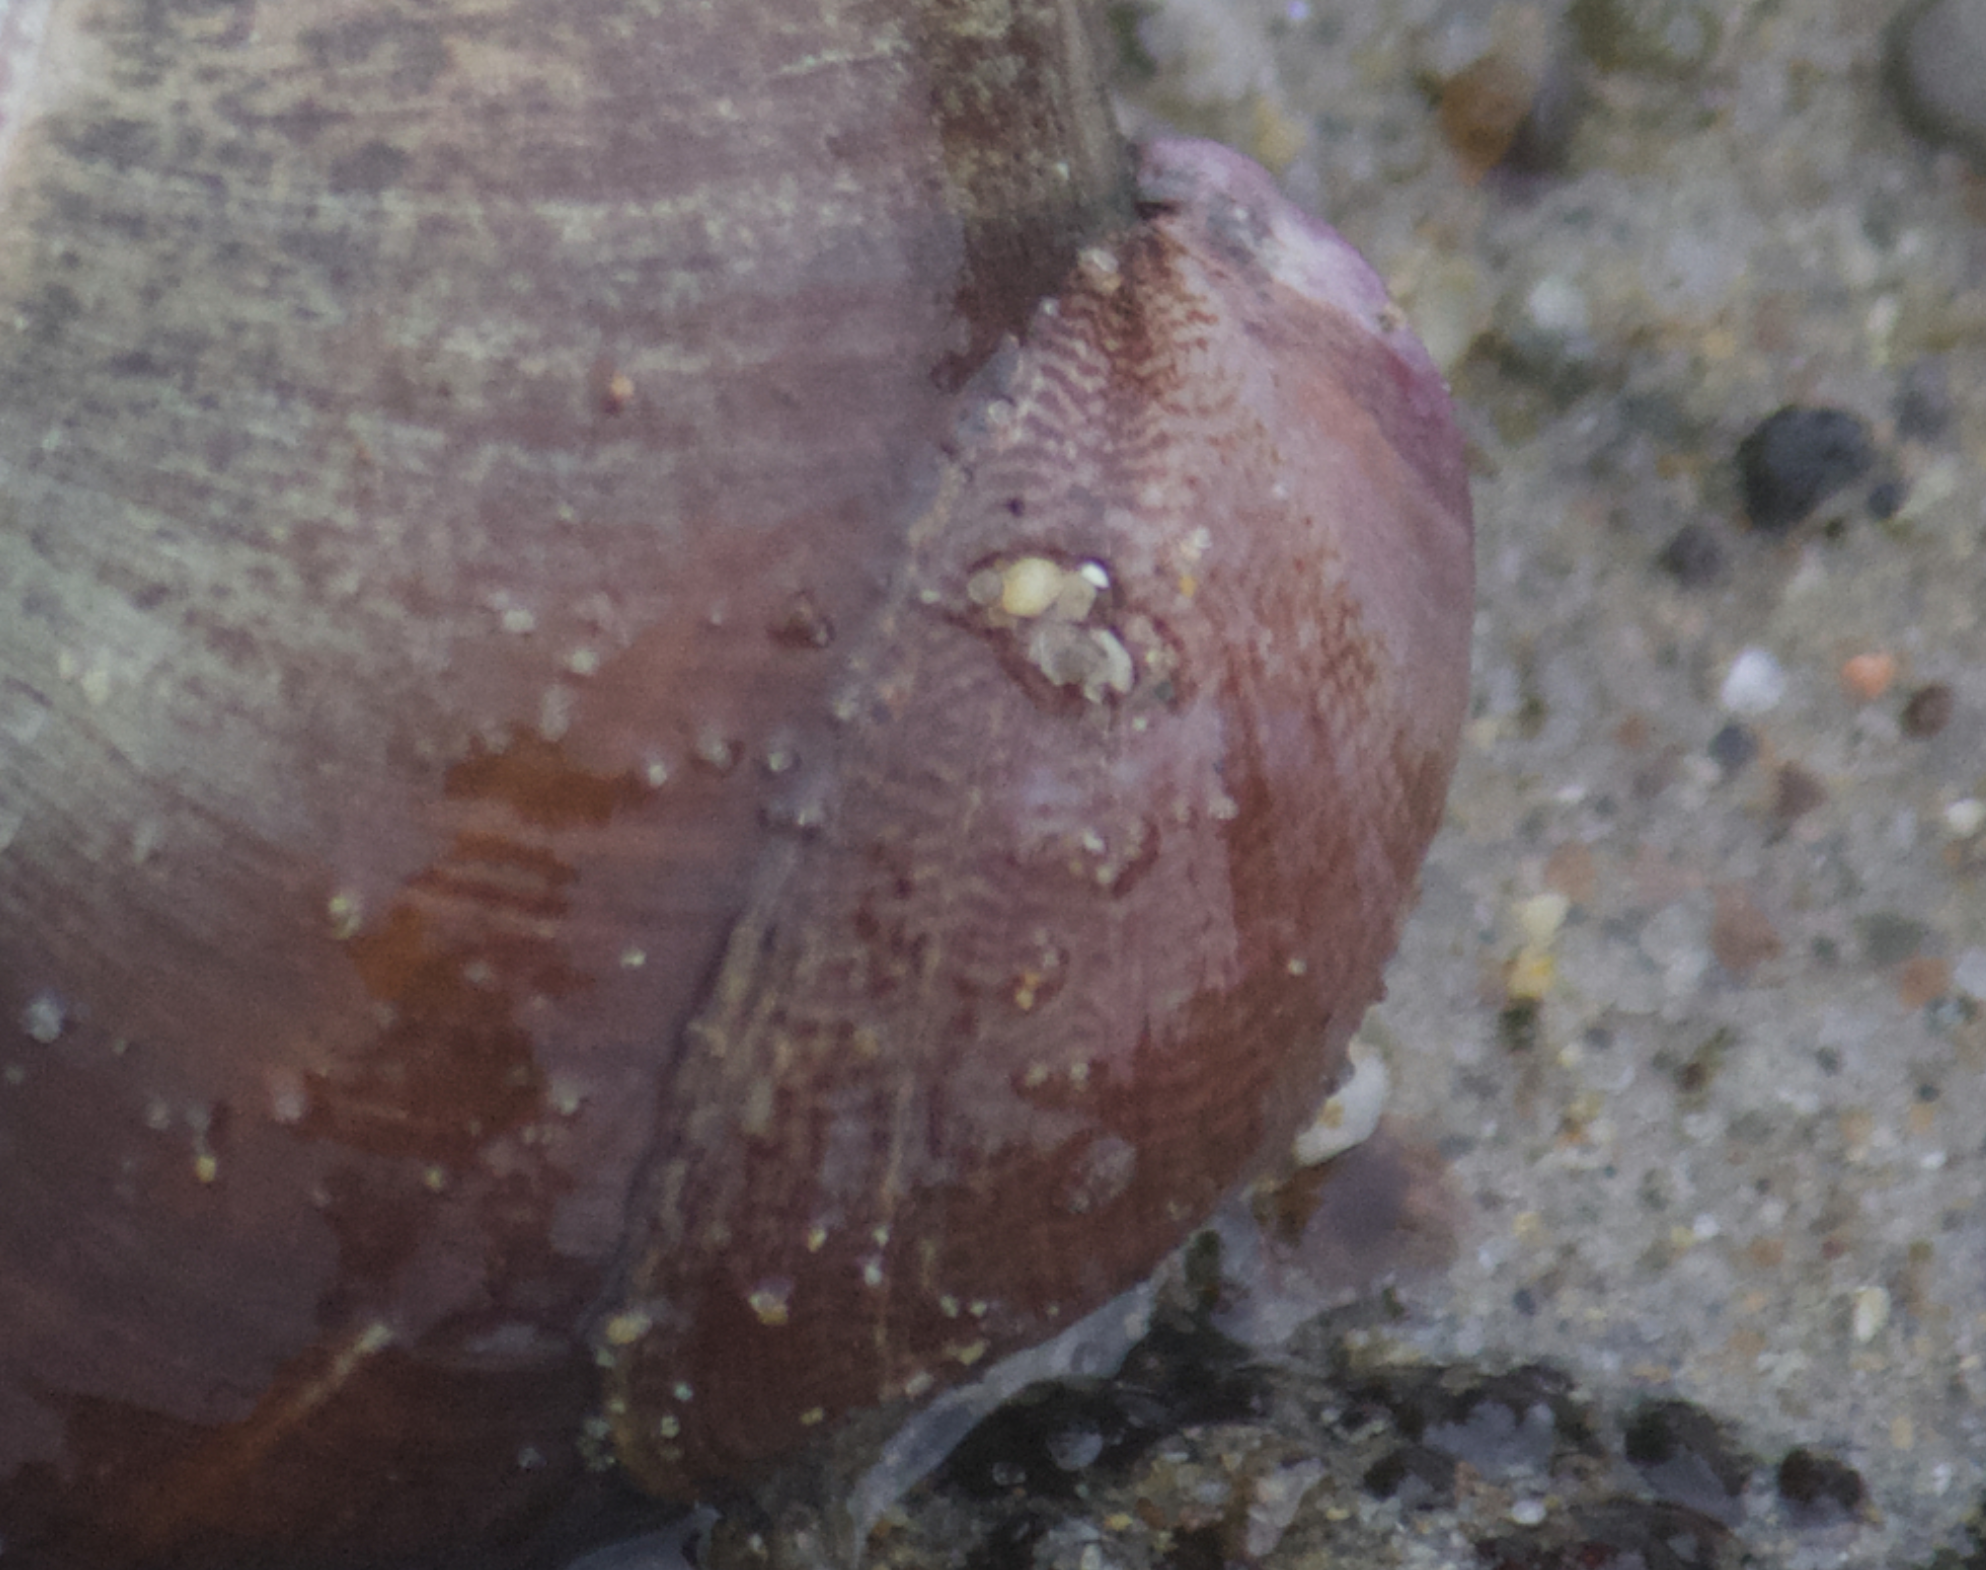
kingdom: Animalia
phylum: Mollusca
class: Gastropoda
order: Littorinimorpha
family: Calyptraeidae
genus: Crepidula
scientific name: Crepidula norrisiarum
